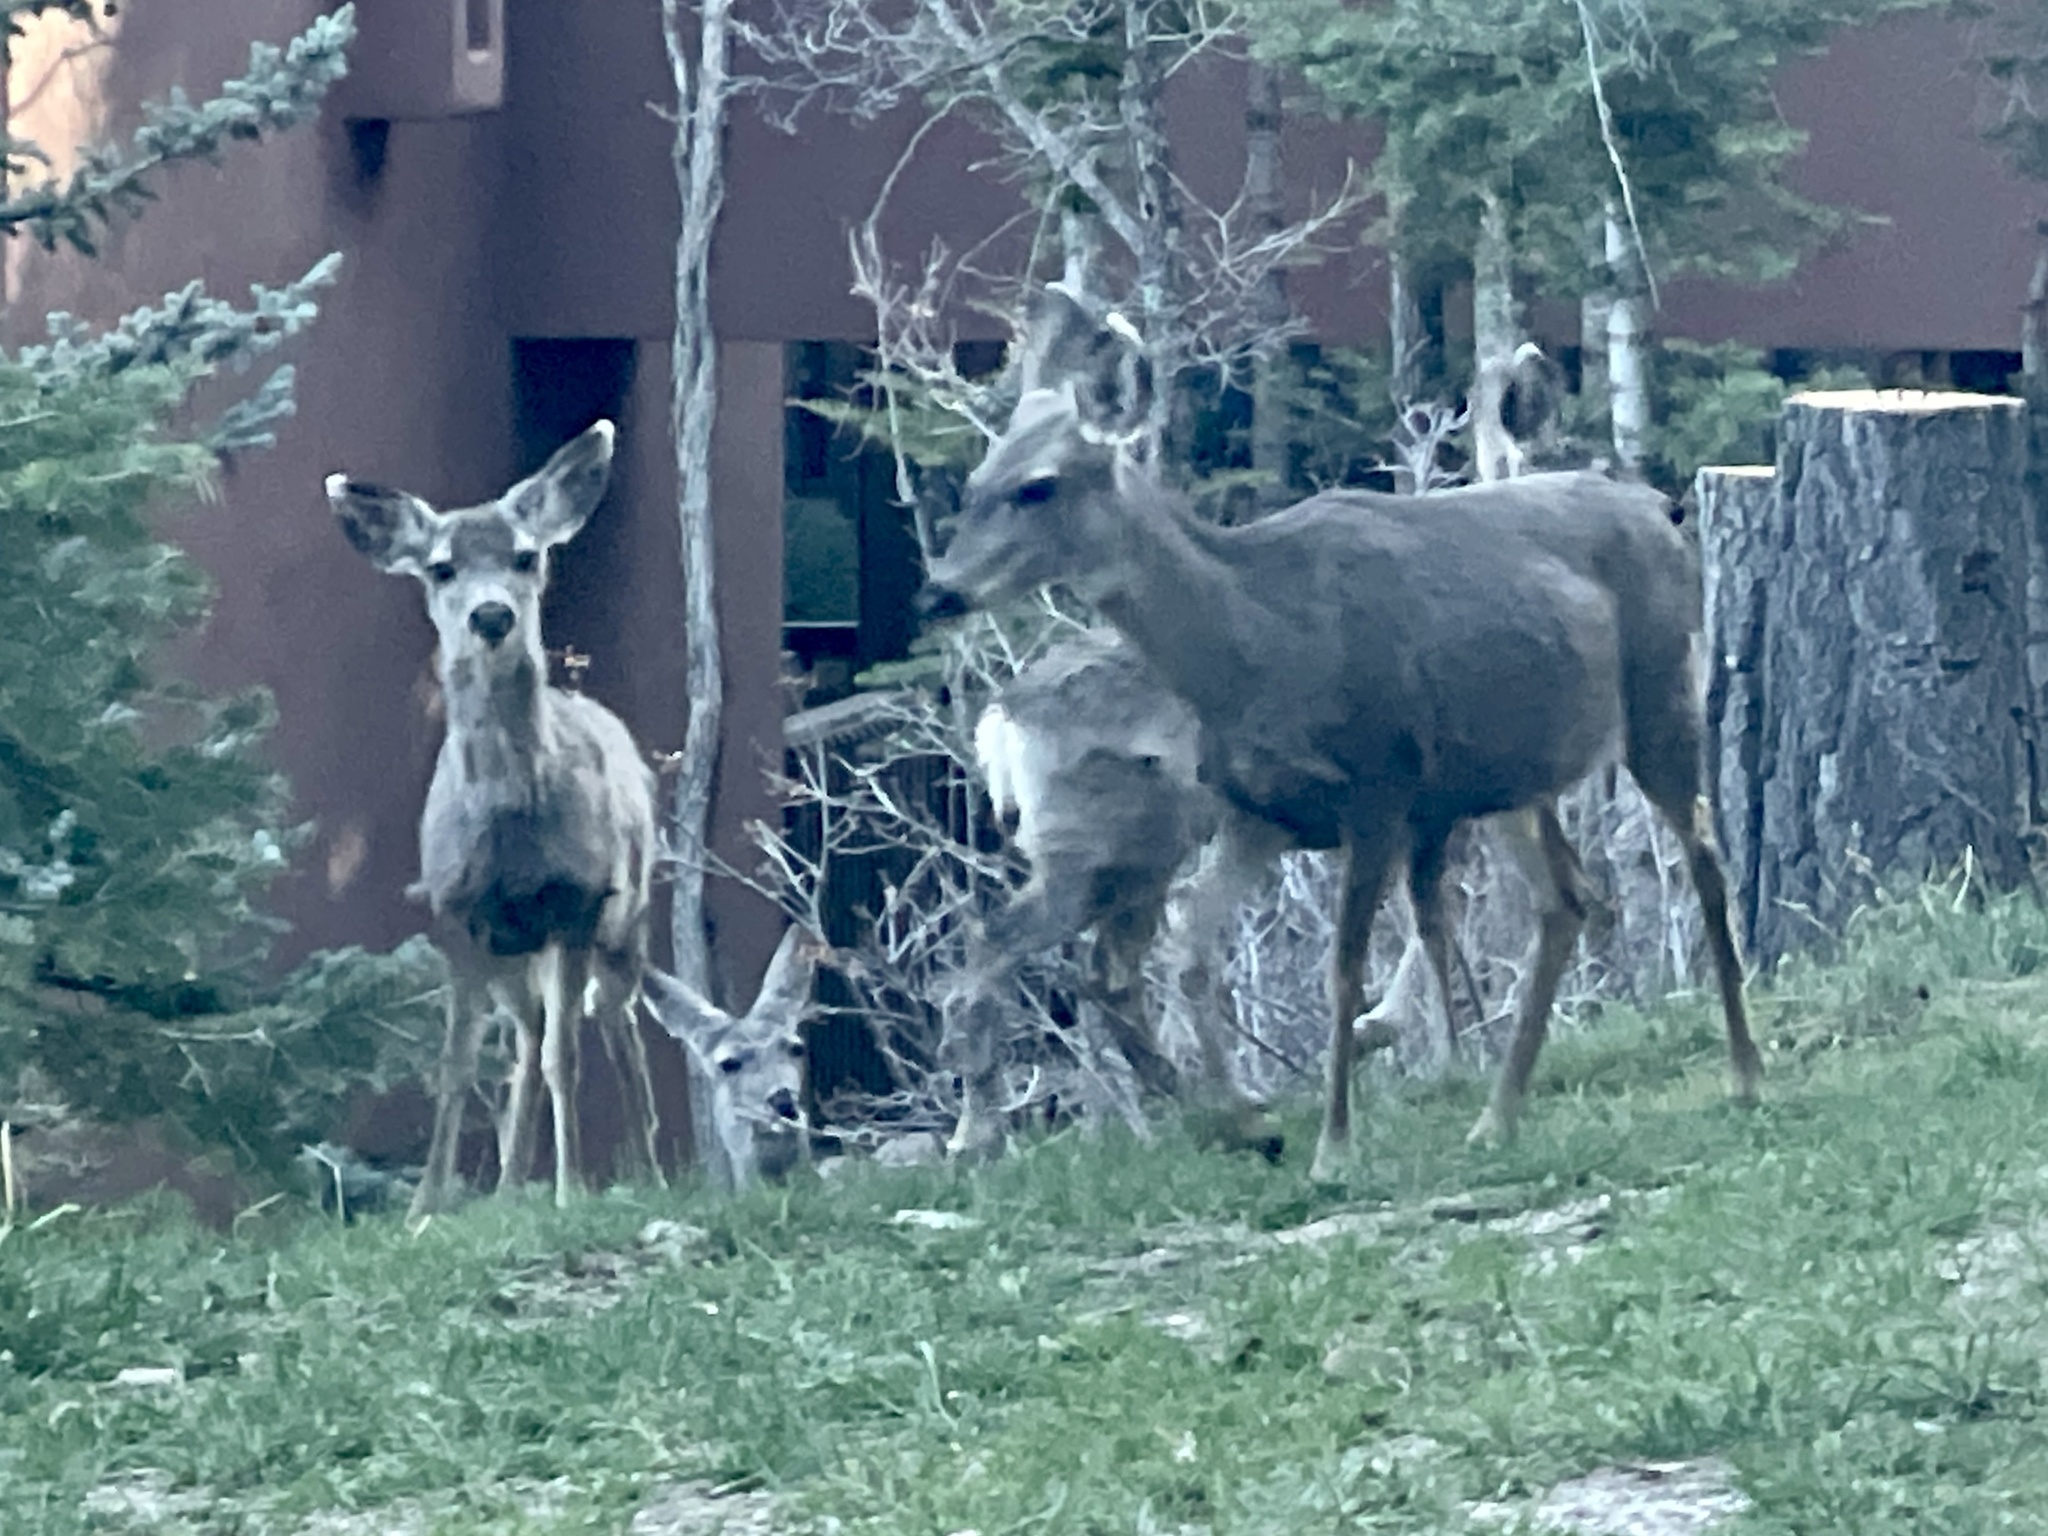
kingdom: Animalia
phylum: Chordata
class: Mammalia
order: Artiodactyla
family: Cervidae
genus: Odocoileus
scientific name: Odocoileus hemionus
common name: Mule deer
